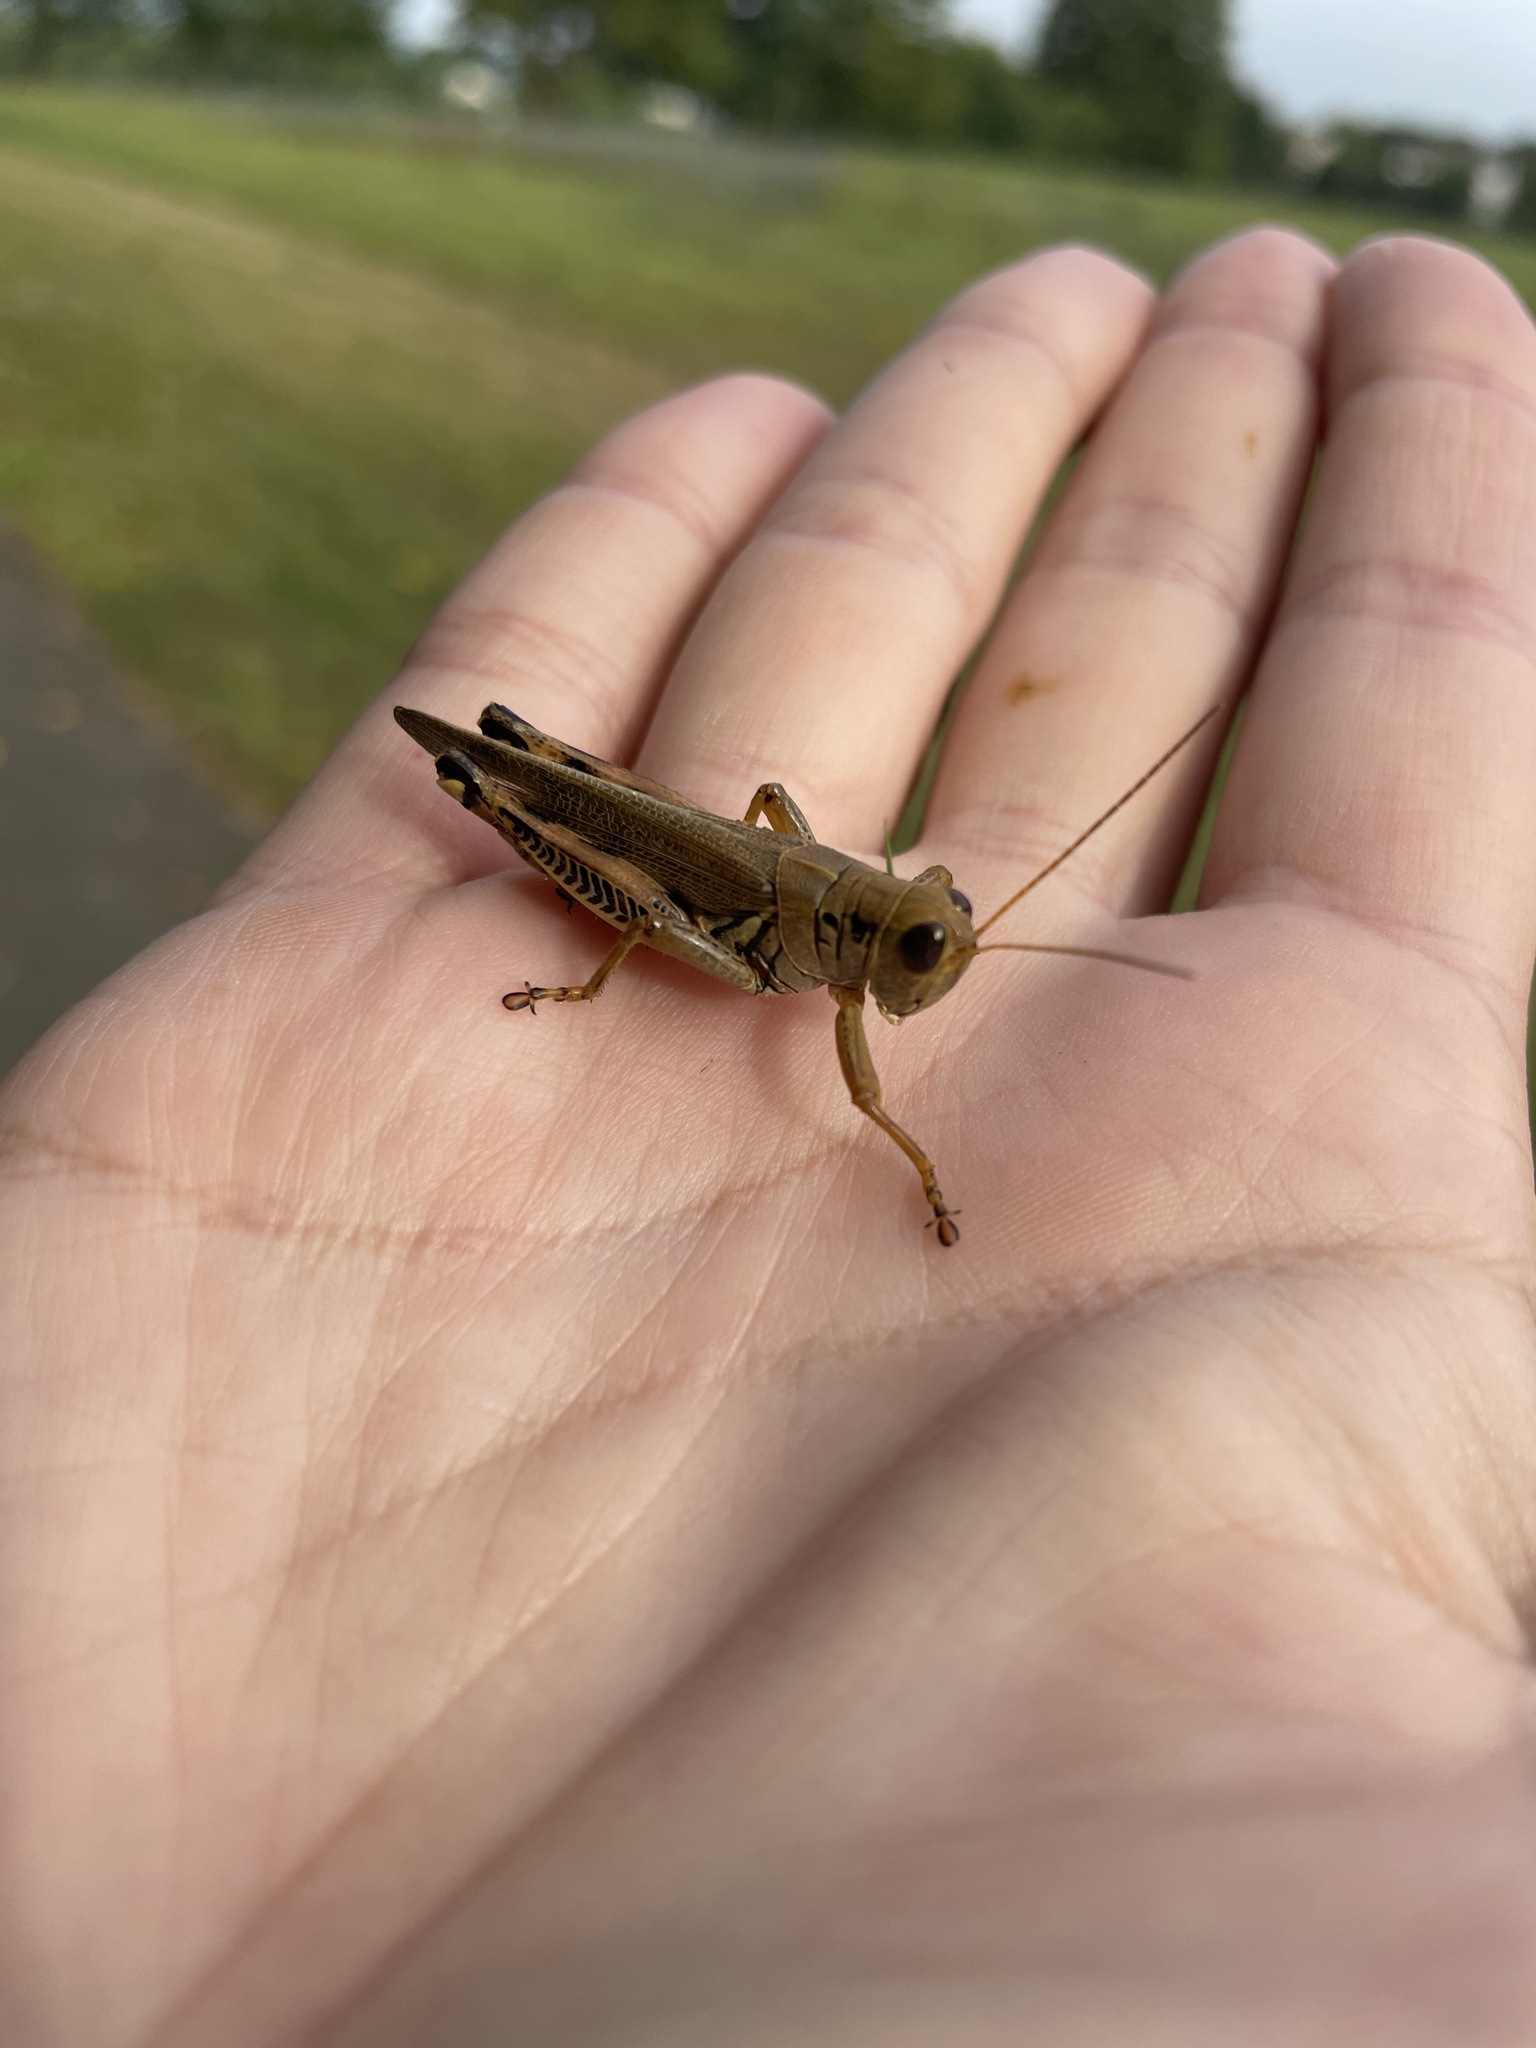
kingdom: Animalia
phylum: Arthropoda
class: Insecta
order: Orthoptera
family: Acrididae
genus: Melanoplus
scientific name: Melanoplus differentialis
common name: Differential grasshopper
